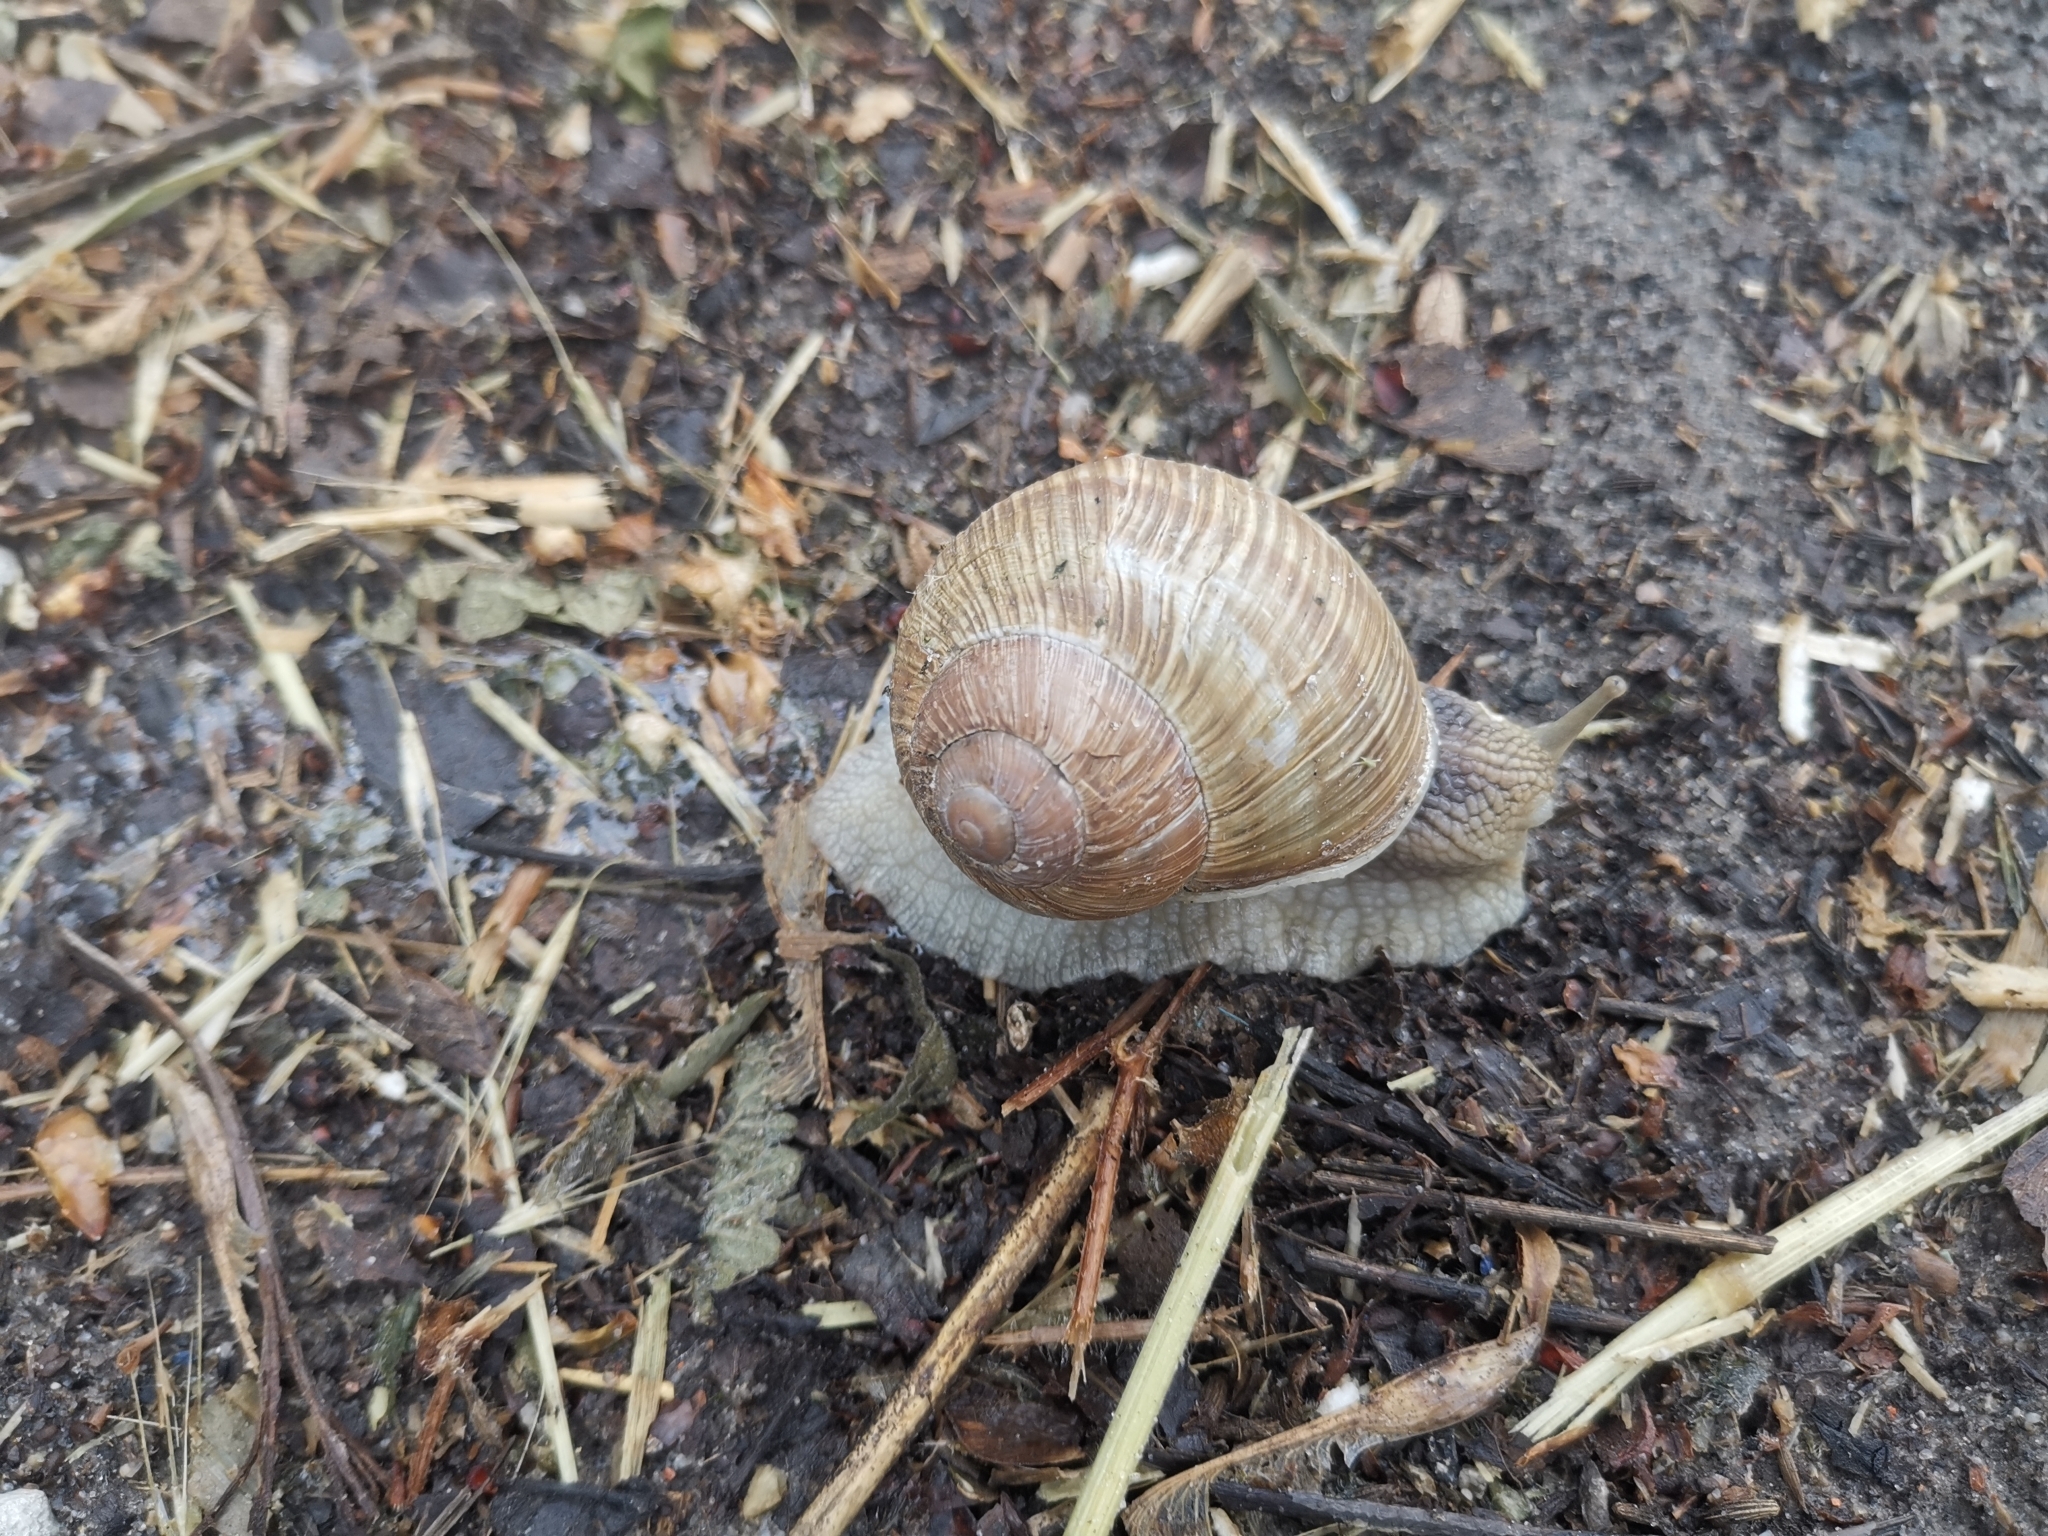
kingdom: Animalia
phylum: Mollusca
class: Gastropoda
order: Stylommatophora
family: Helicidae
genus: Helix
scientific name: Helix pomatia
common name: Roman snail
